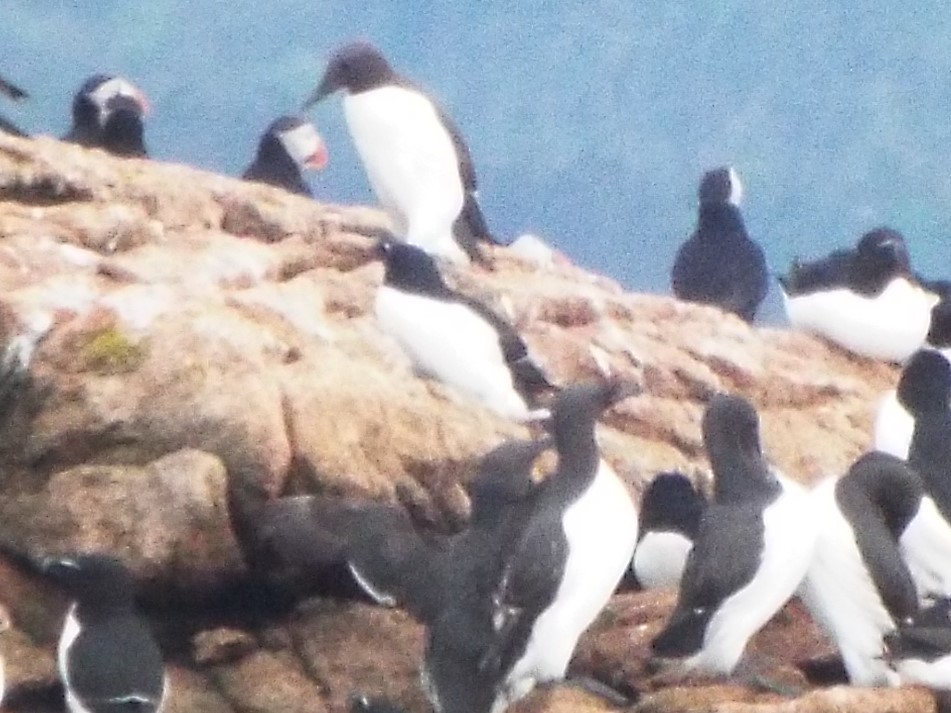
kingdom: Animalia
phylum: Chordata
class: Aves
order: Charadriiformes
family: Alcidae
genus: Uria
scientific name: Uria aalge
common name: Common murre
